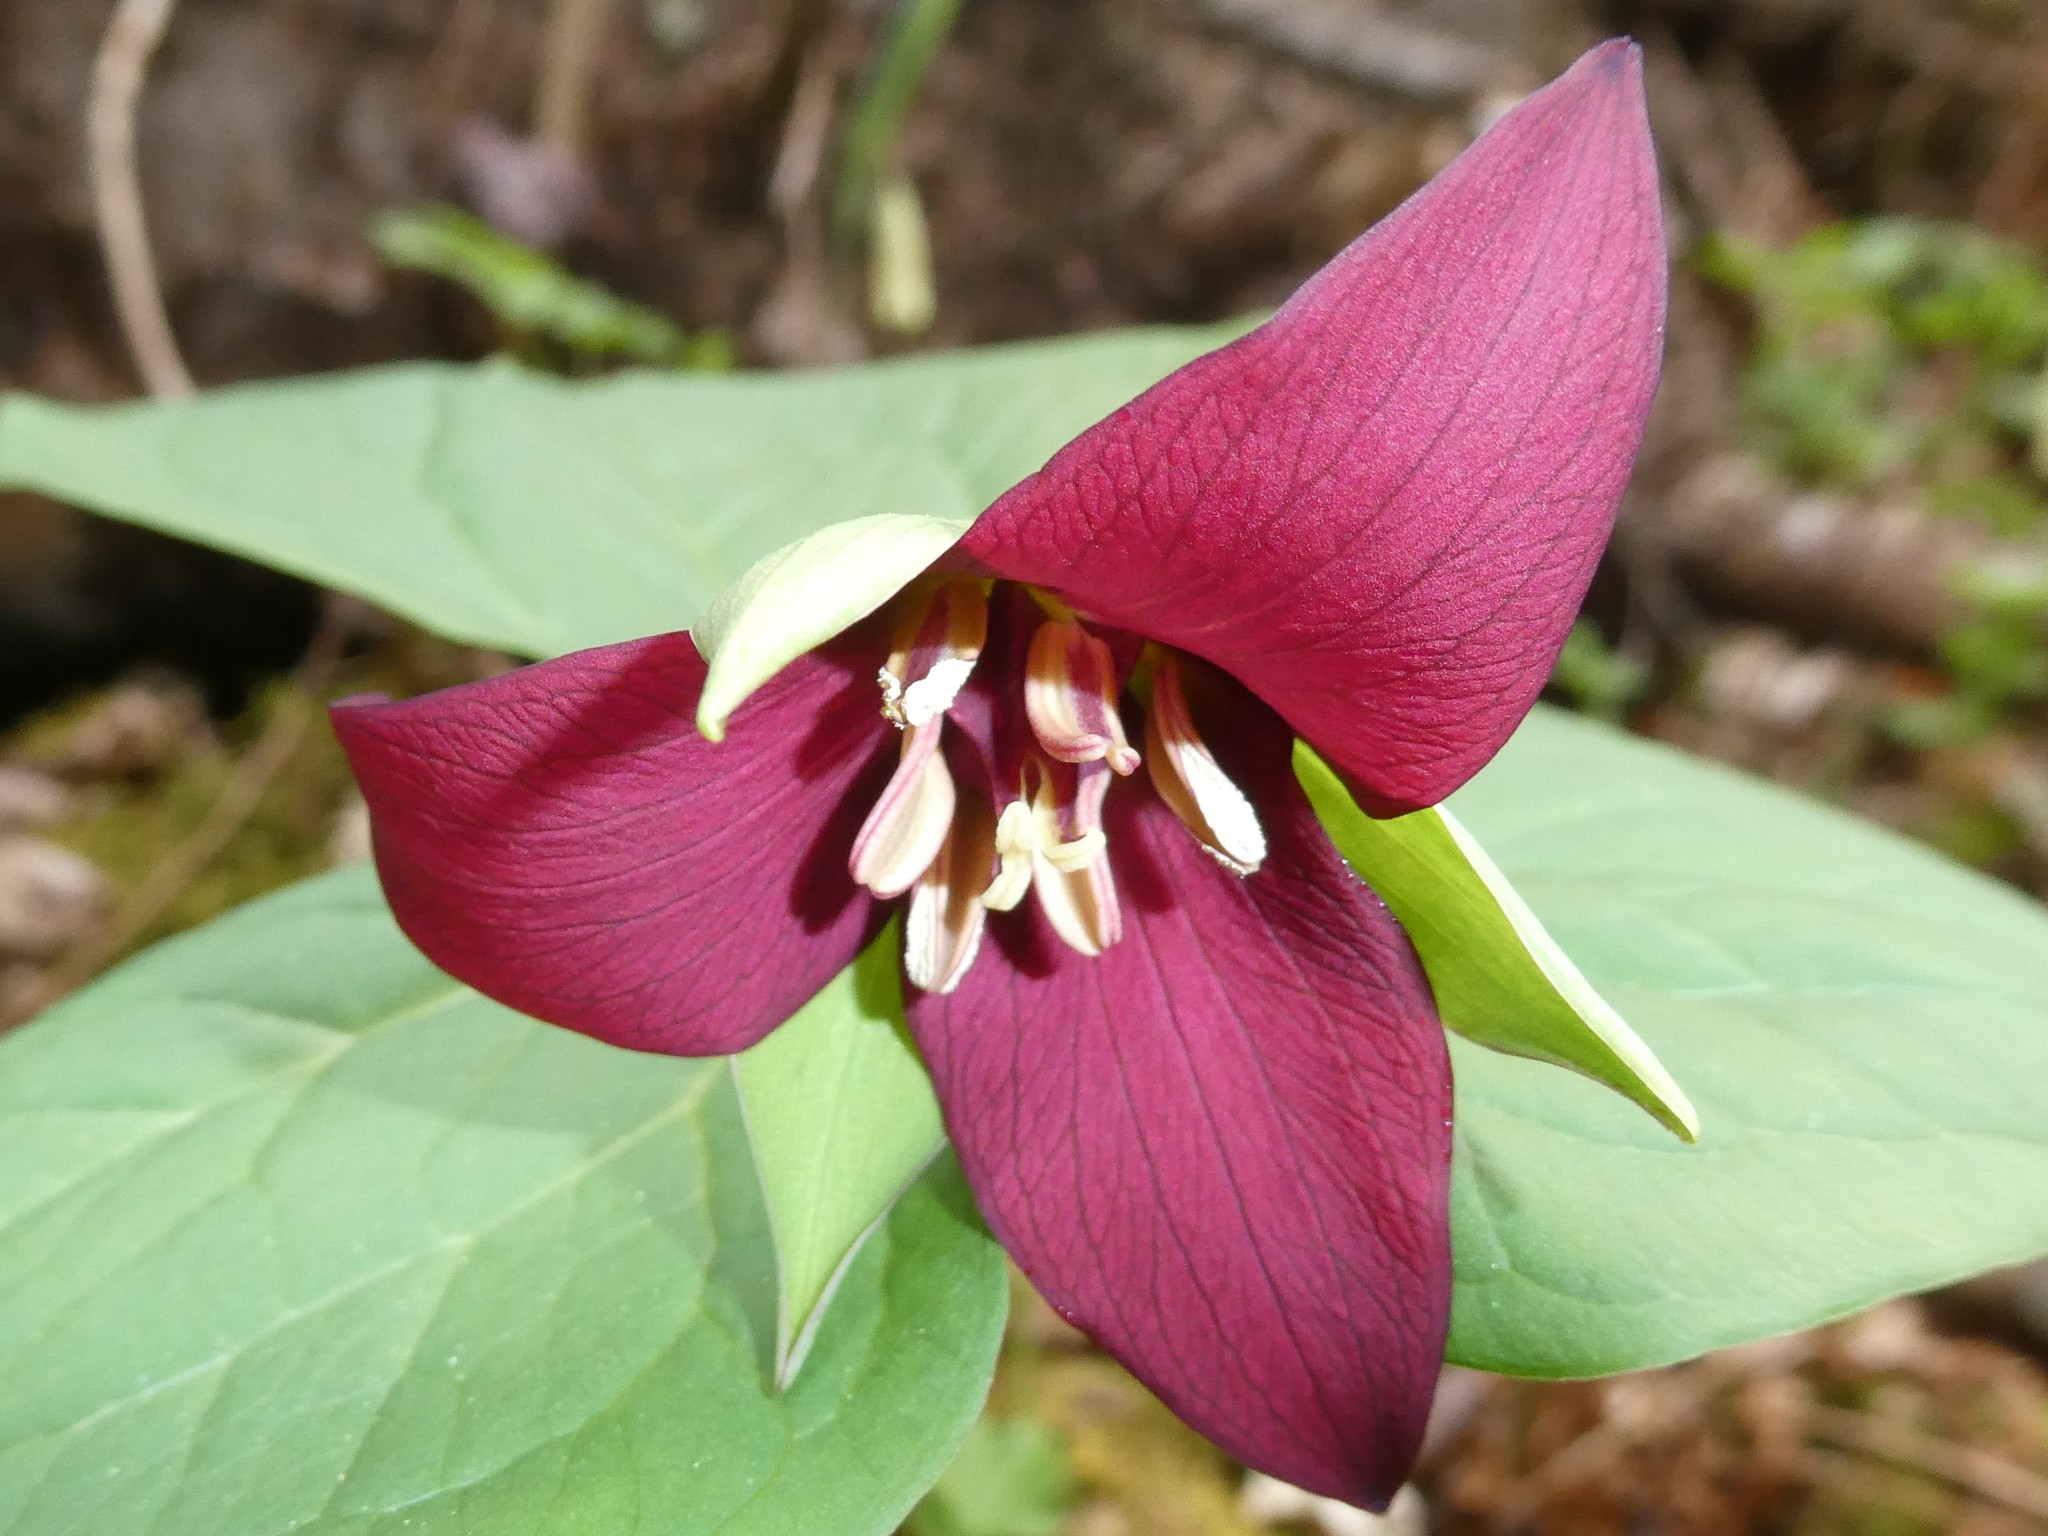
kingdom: Plantae
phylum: Tracheophyta
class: Liliopsida
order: Liliales
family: Melanthiaceae
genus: Trillium
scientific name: Trillium erectum
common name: Purple trillium
